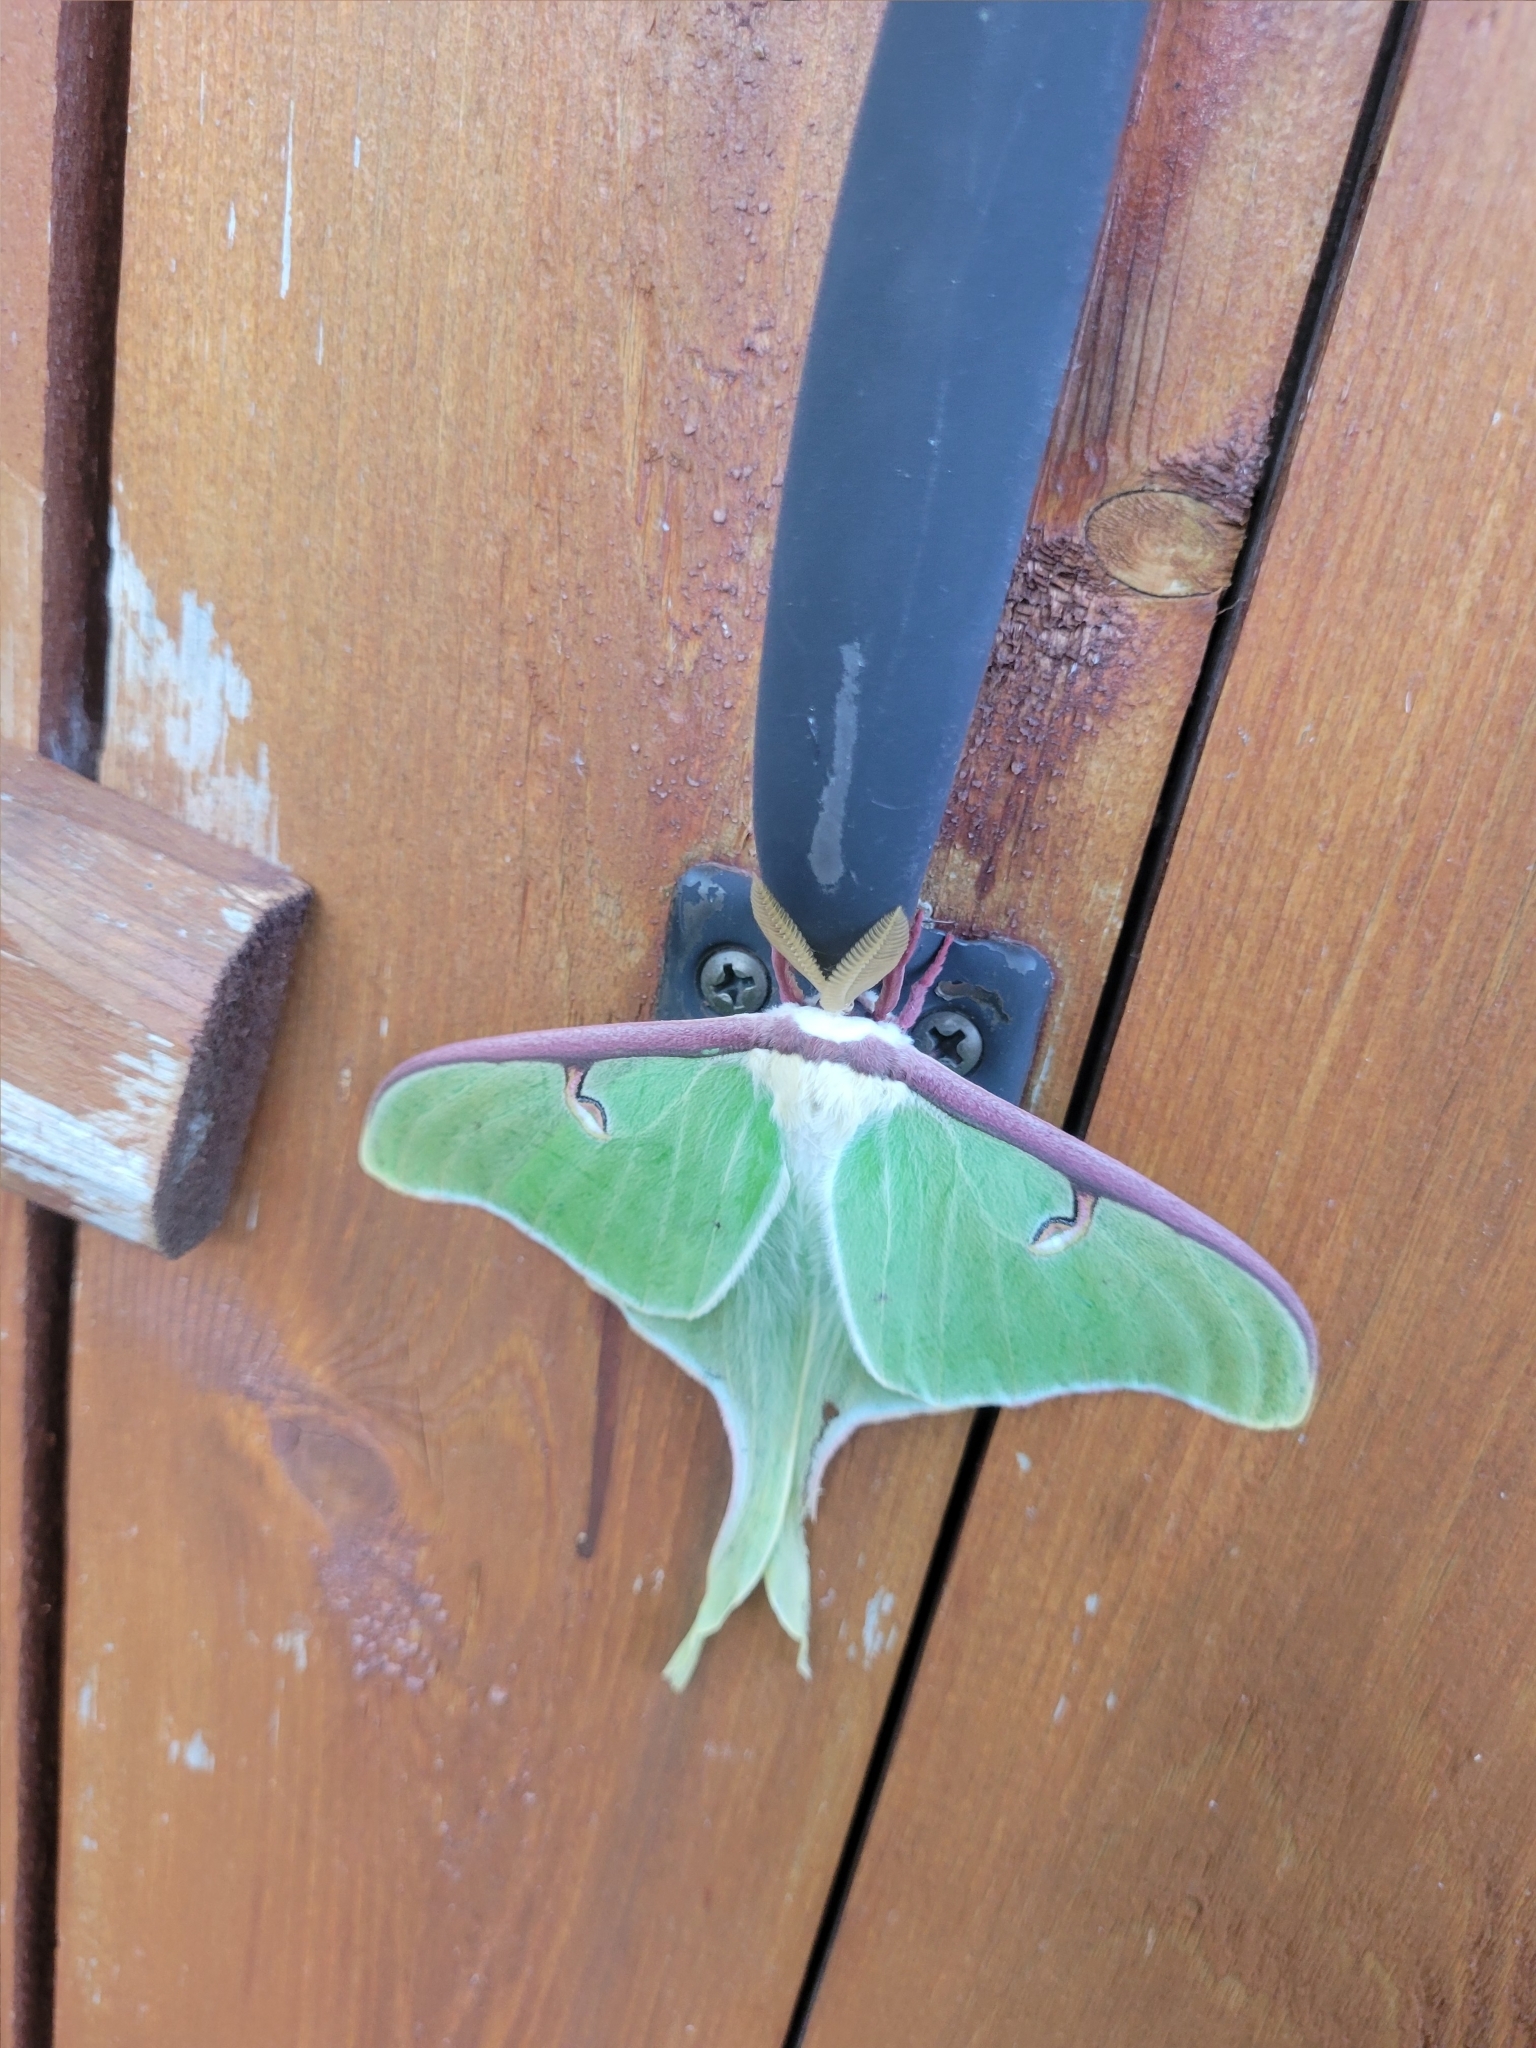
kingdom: Animalia
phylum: Arthropoda
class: Insecta
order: Lepidoptera
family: Saturniidae
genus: Actias
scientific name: Actias luna
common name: Luna moth
